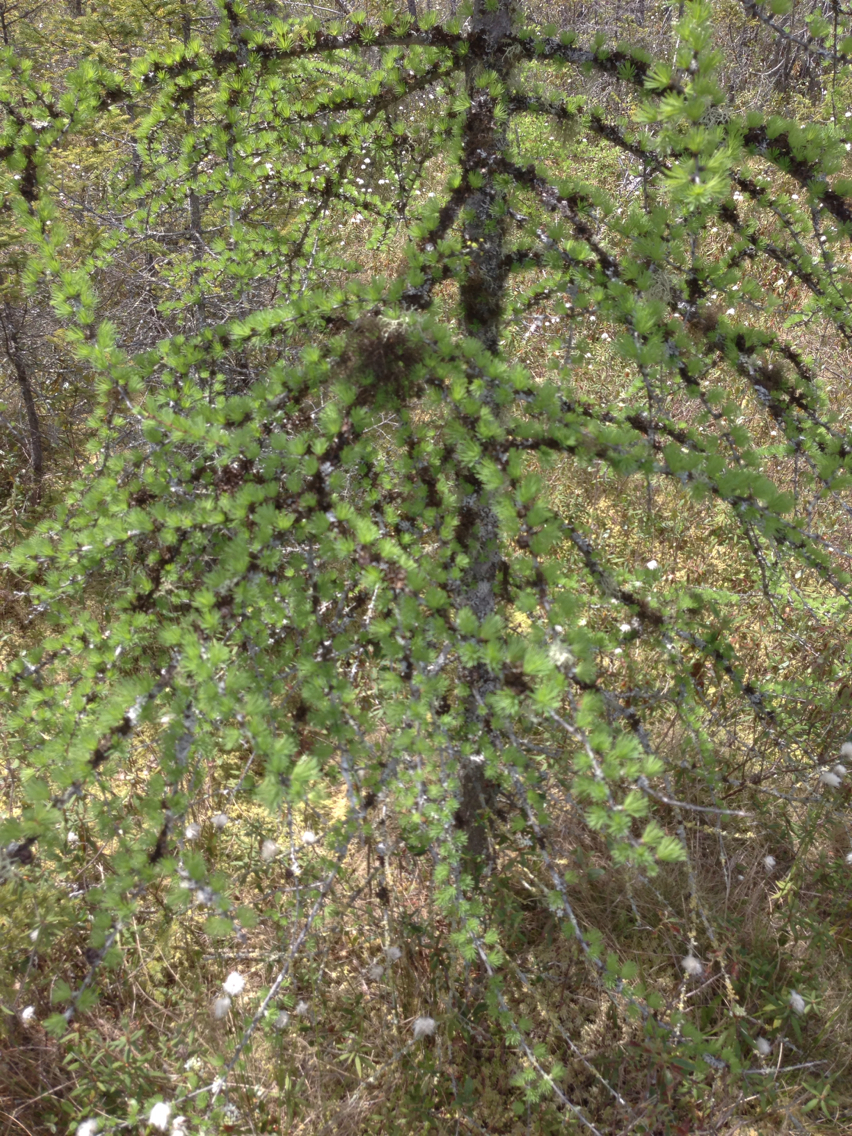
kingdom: Plantae
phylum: Tracheophyta
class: Pinopsida
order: Pinales
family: Pinaceae
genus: Larix
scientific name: Larix laricina
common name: American larch
